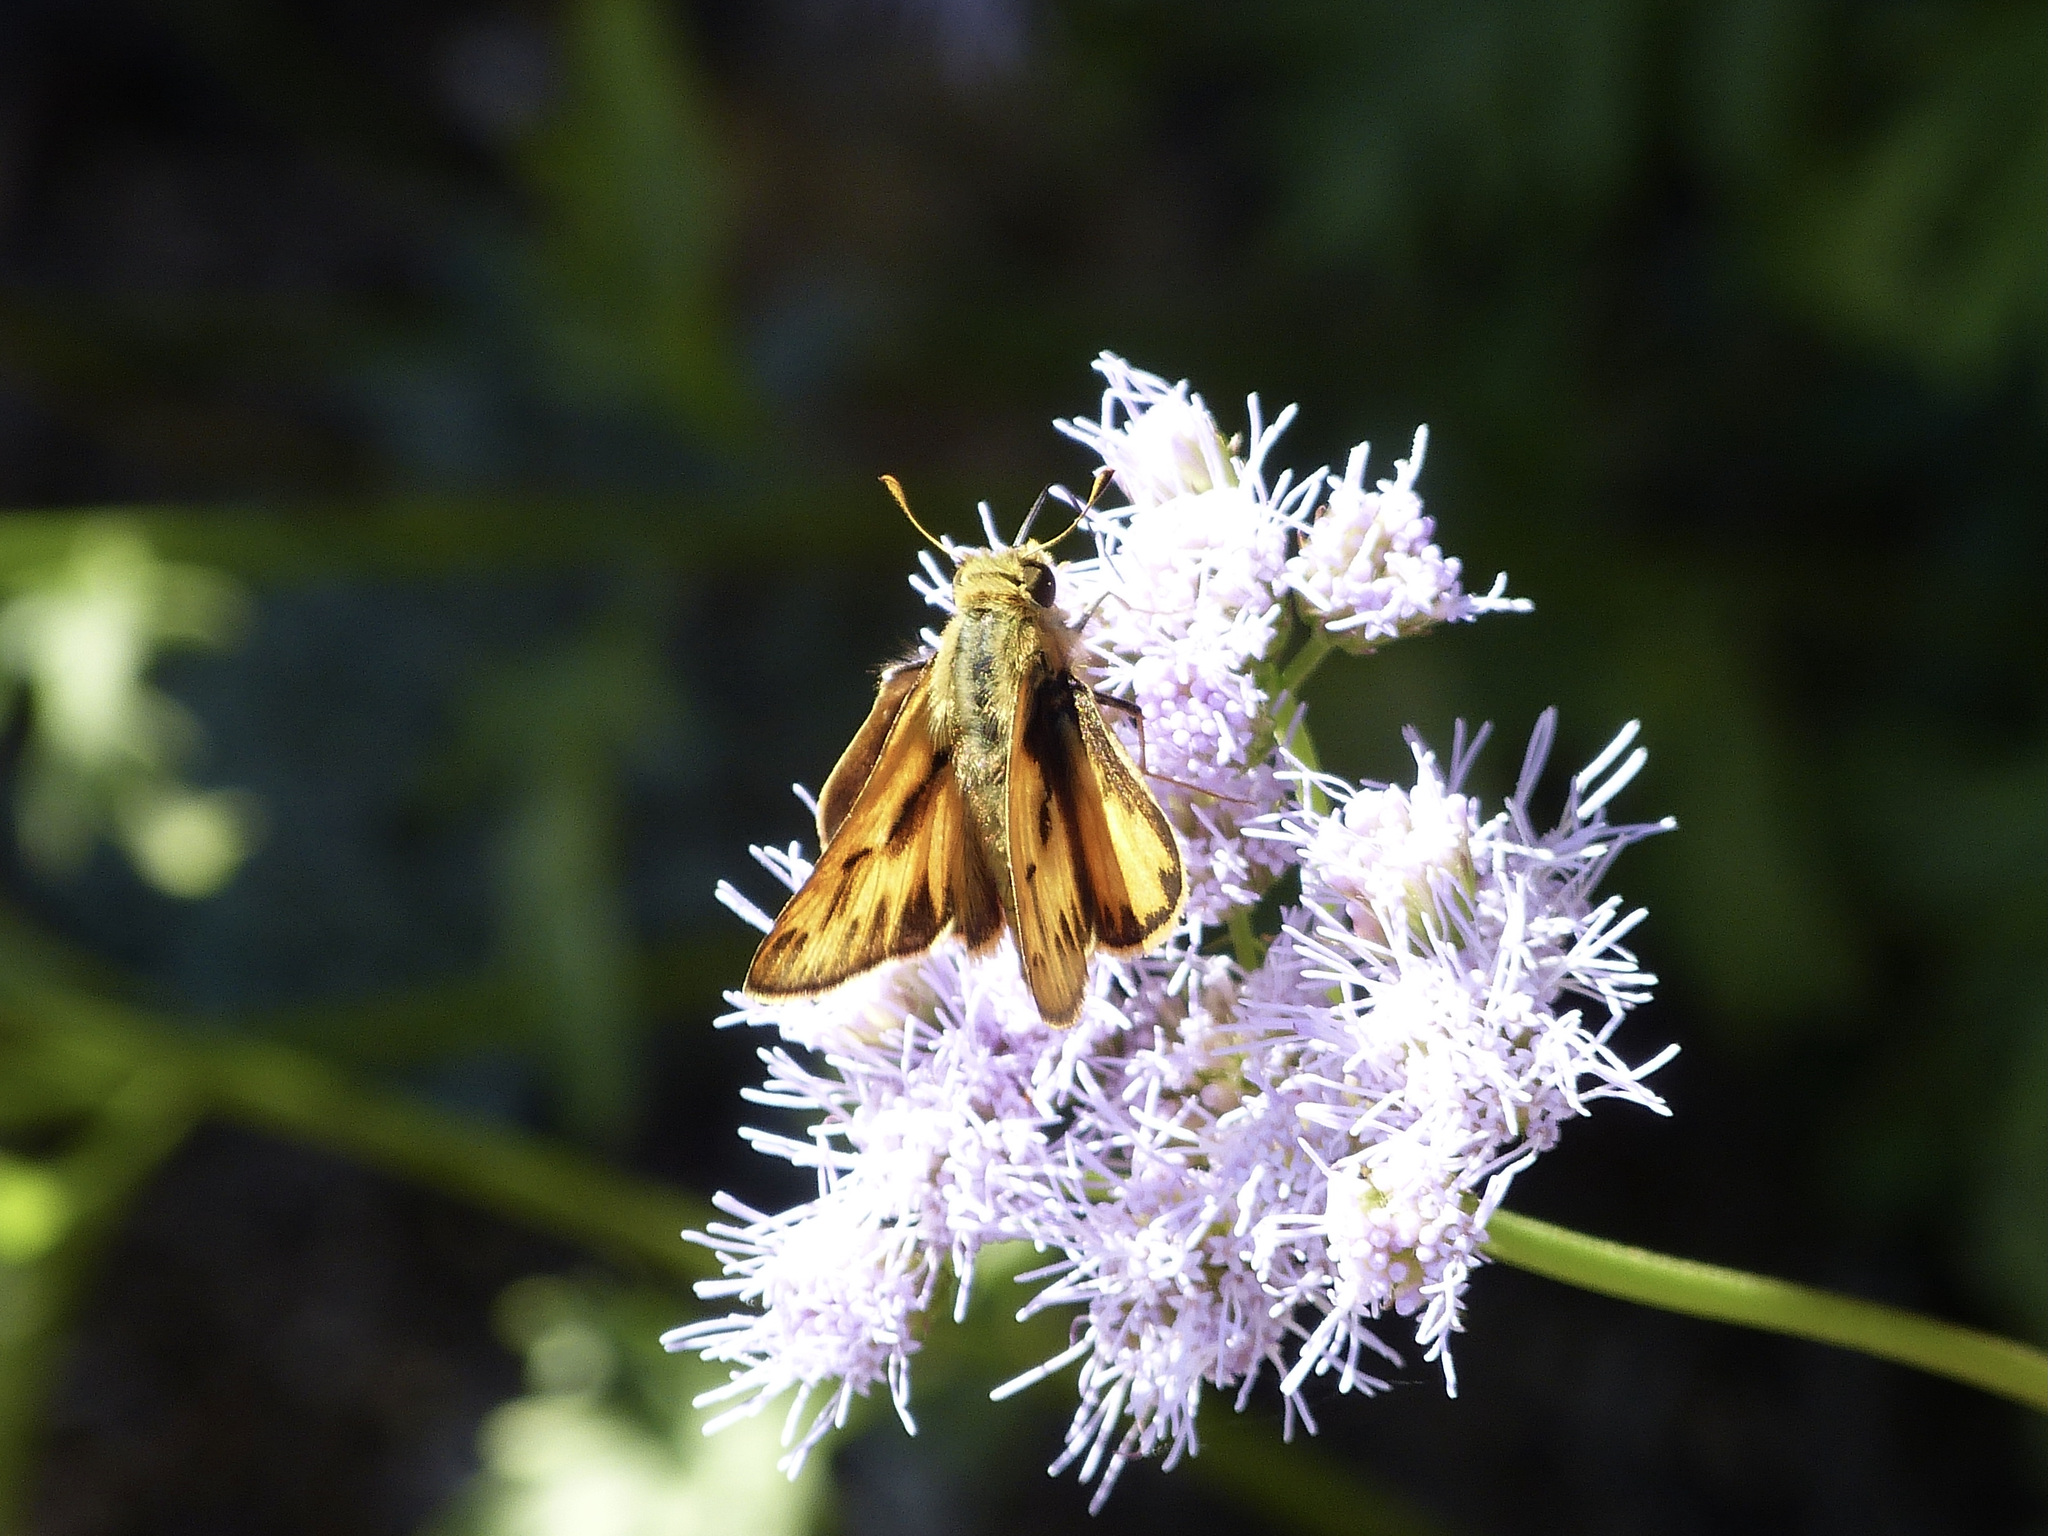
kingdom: Animalia
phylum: Arthropoda
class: Insecta
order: Lepidoptera
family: Hesperiidae
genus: Hylephila
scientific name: Hylephila phyleus
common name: Fiery skipper
